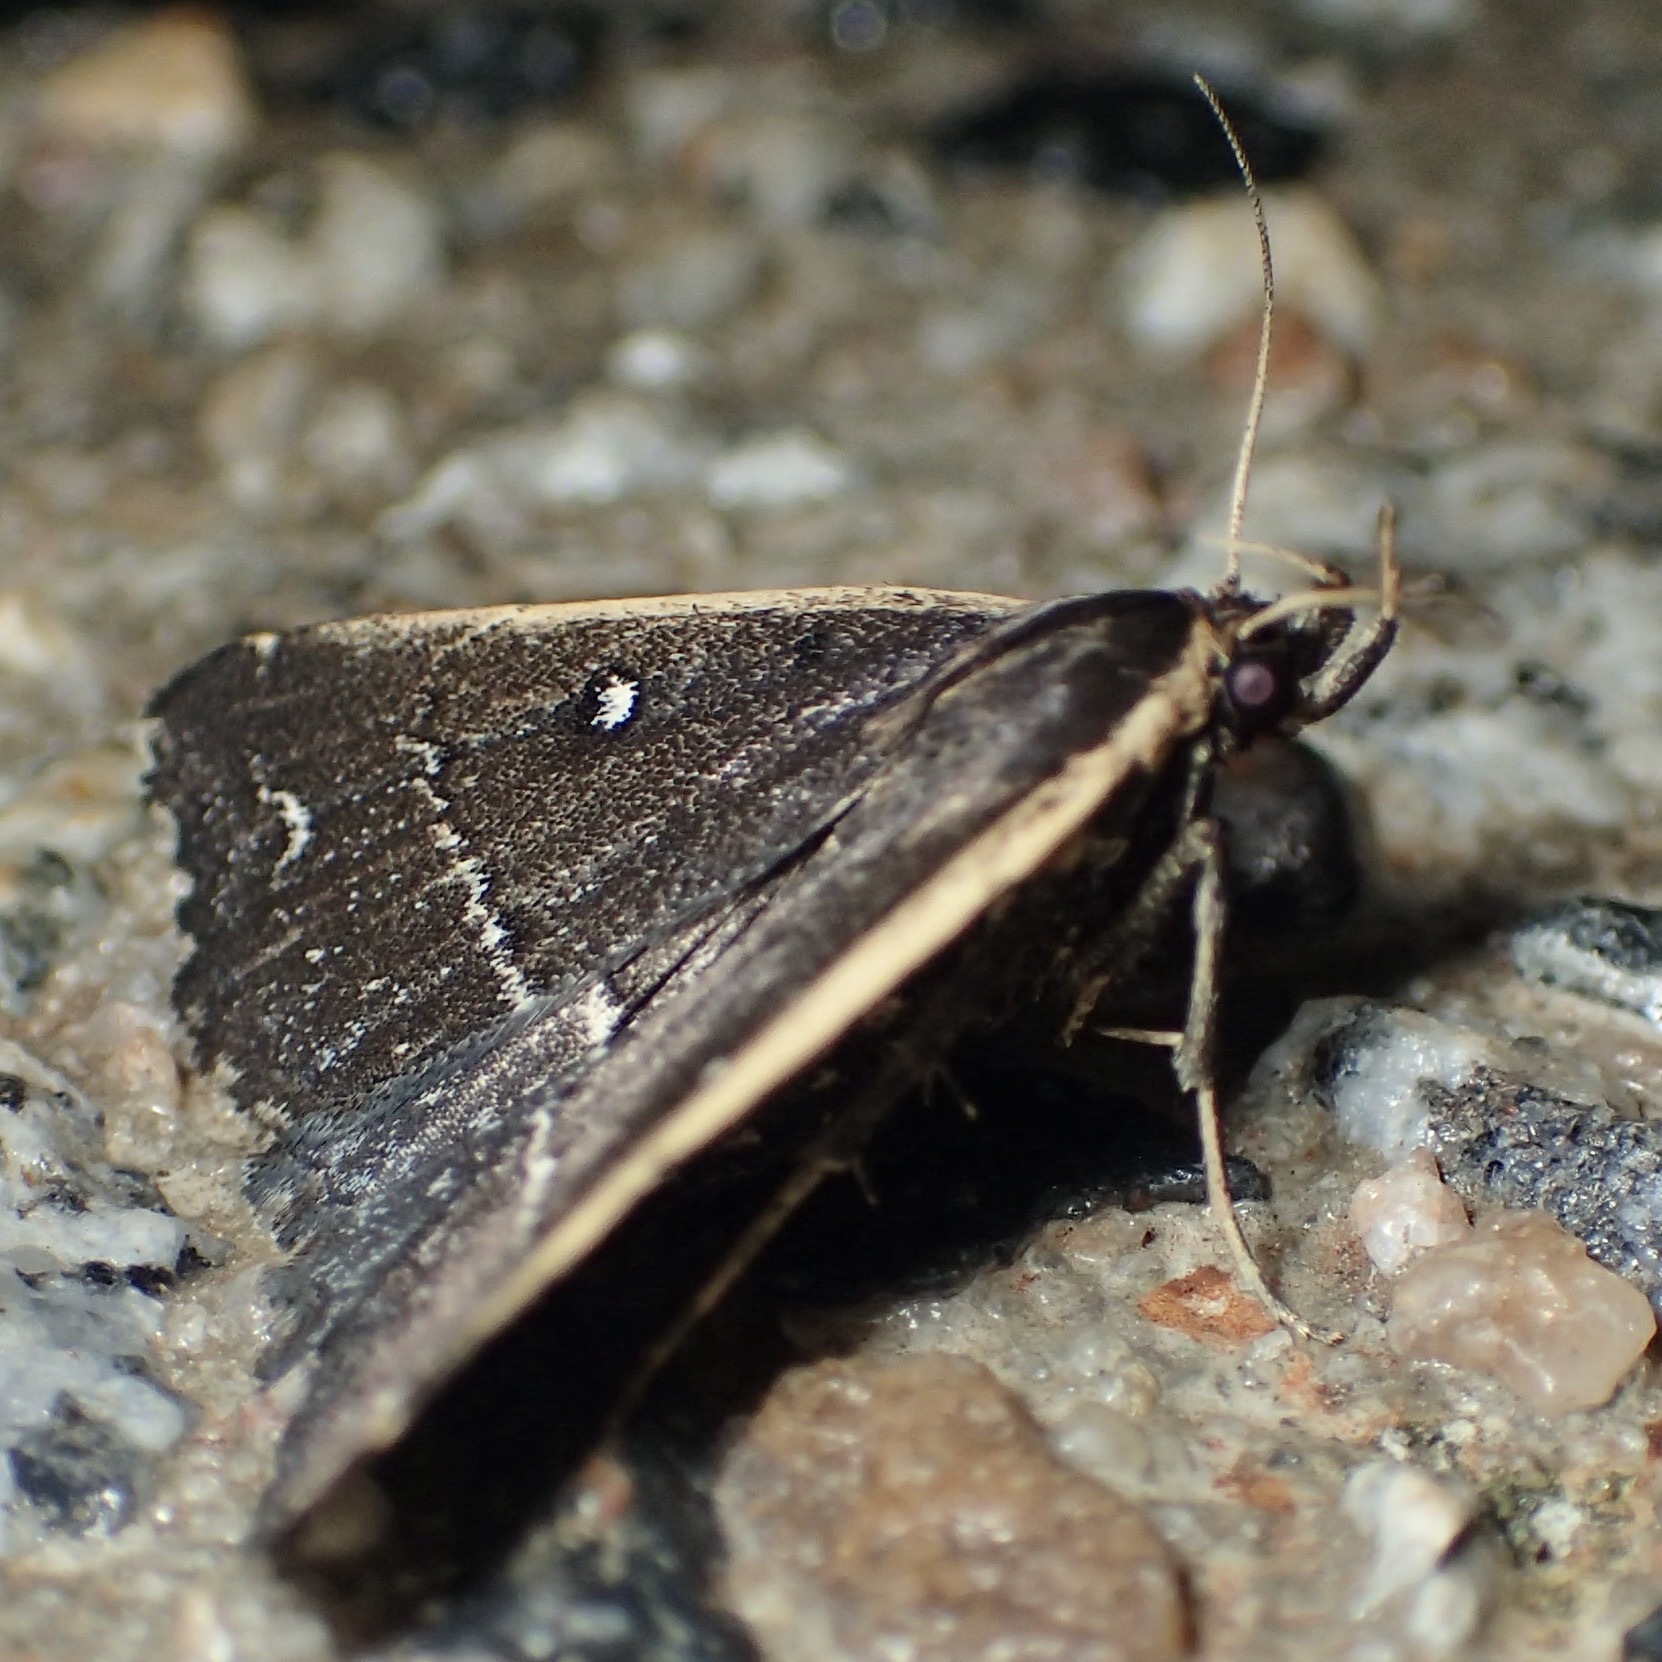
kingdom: Animalia
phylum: Arthropoda
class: Insecta
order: Lepidoptera
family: Erebidae
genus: Adrapsa
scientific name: Adrapsa ablualis
